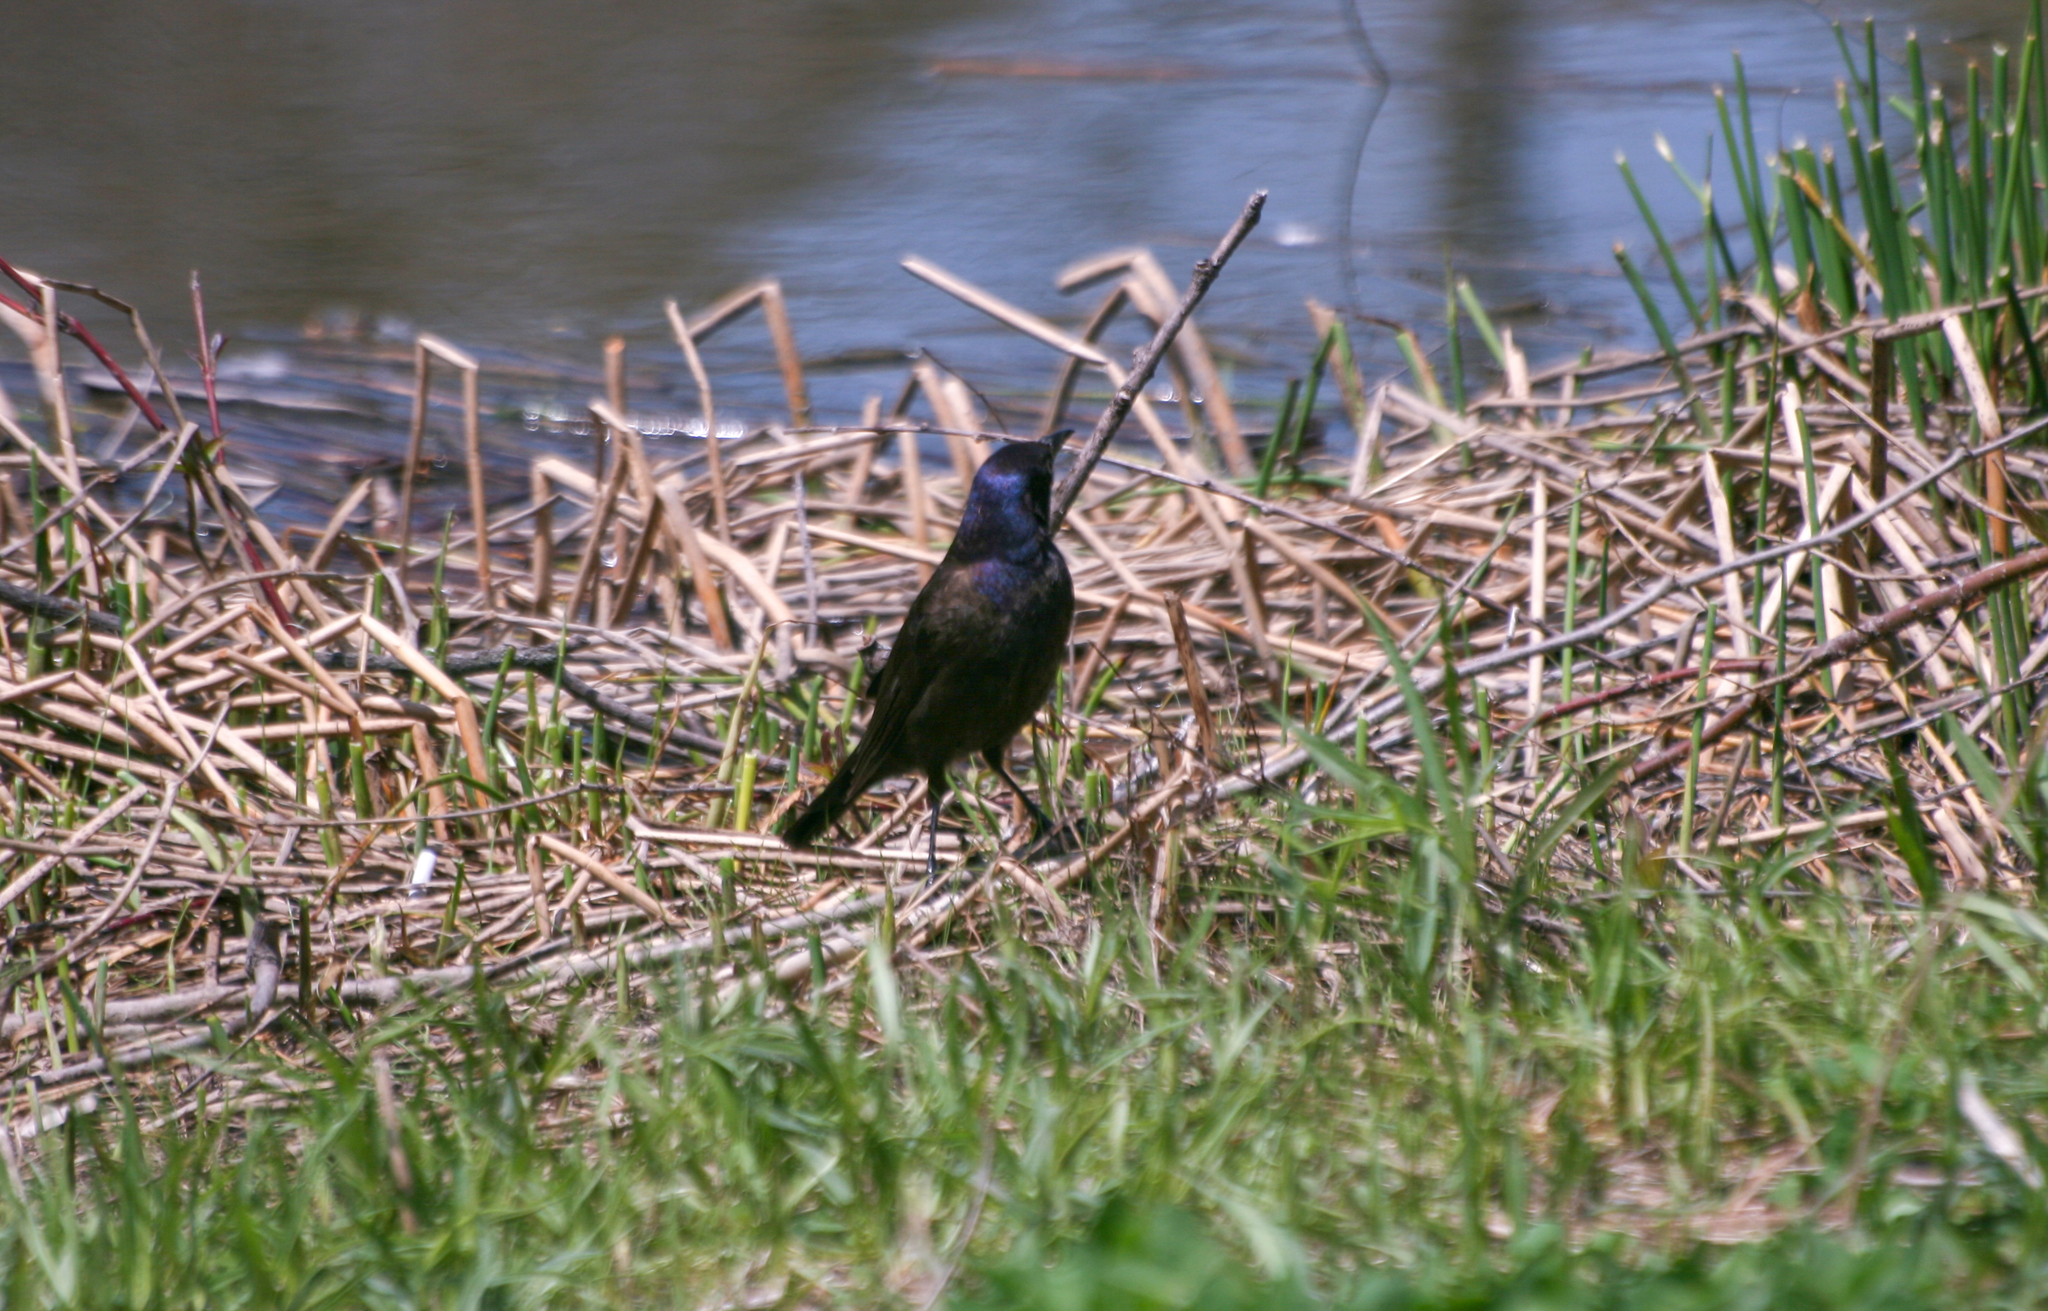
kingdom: Animalia
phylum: Chordata
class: Aves
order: Passeriformes
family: Icteridae
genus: Quiscalus
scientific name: Quiscalus quiscula
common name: Common grackle
